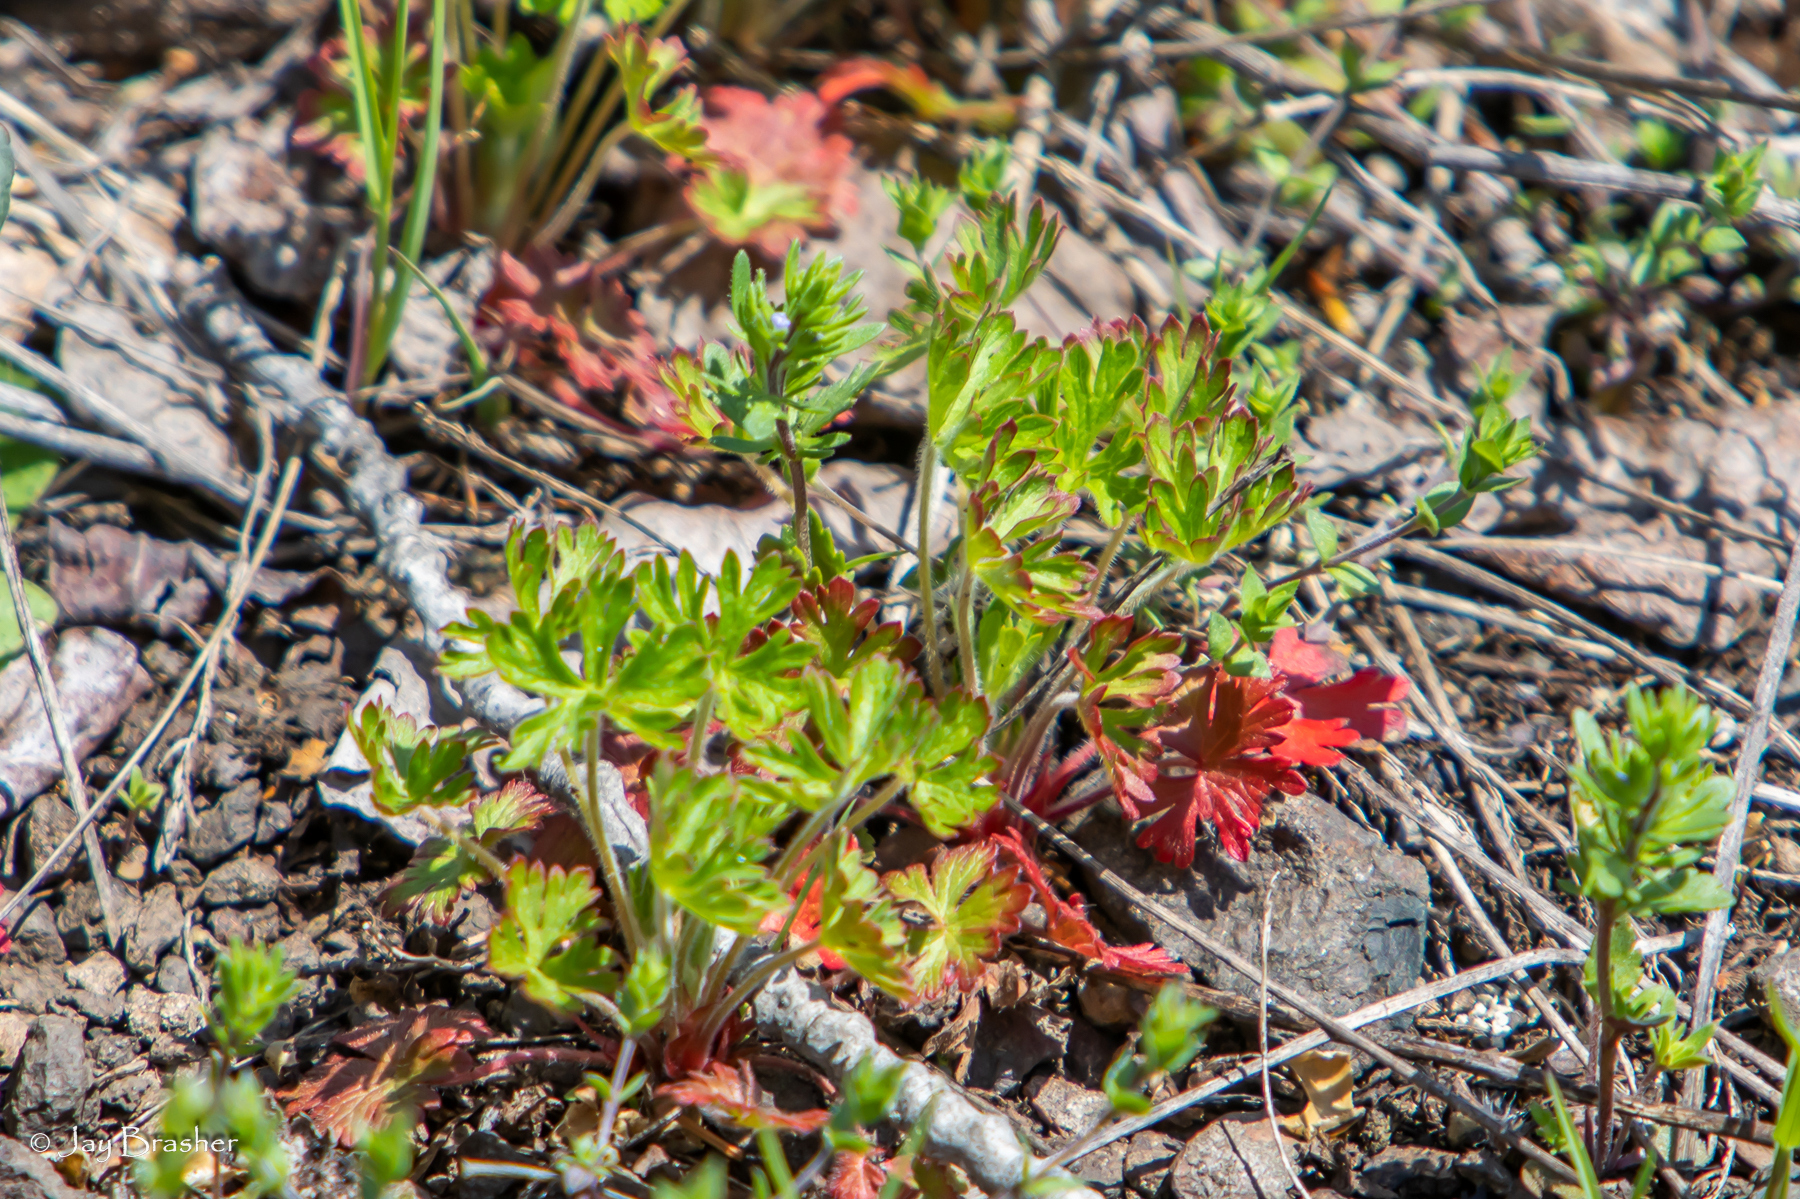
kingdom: Plantae
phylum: Tracheophyta
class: Magnoliopsida
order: Geraniales
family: Geraniaceae
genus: Geranium
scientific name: Geranium bicknellii
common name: Bicknell's cranesbill
